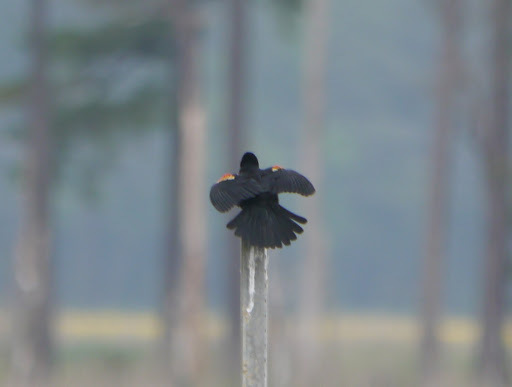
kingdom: Animalia
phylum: Chordata
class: Aves
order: Passeriformes
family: Icteridae
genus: Agelaius
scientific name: Agelaius phoeniceus
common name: Red-winged blackbird
